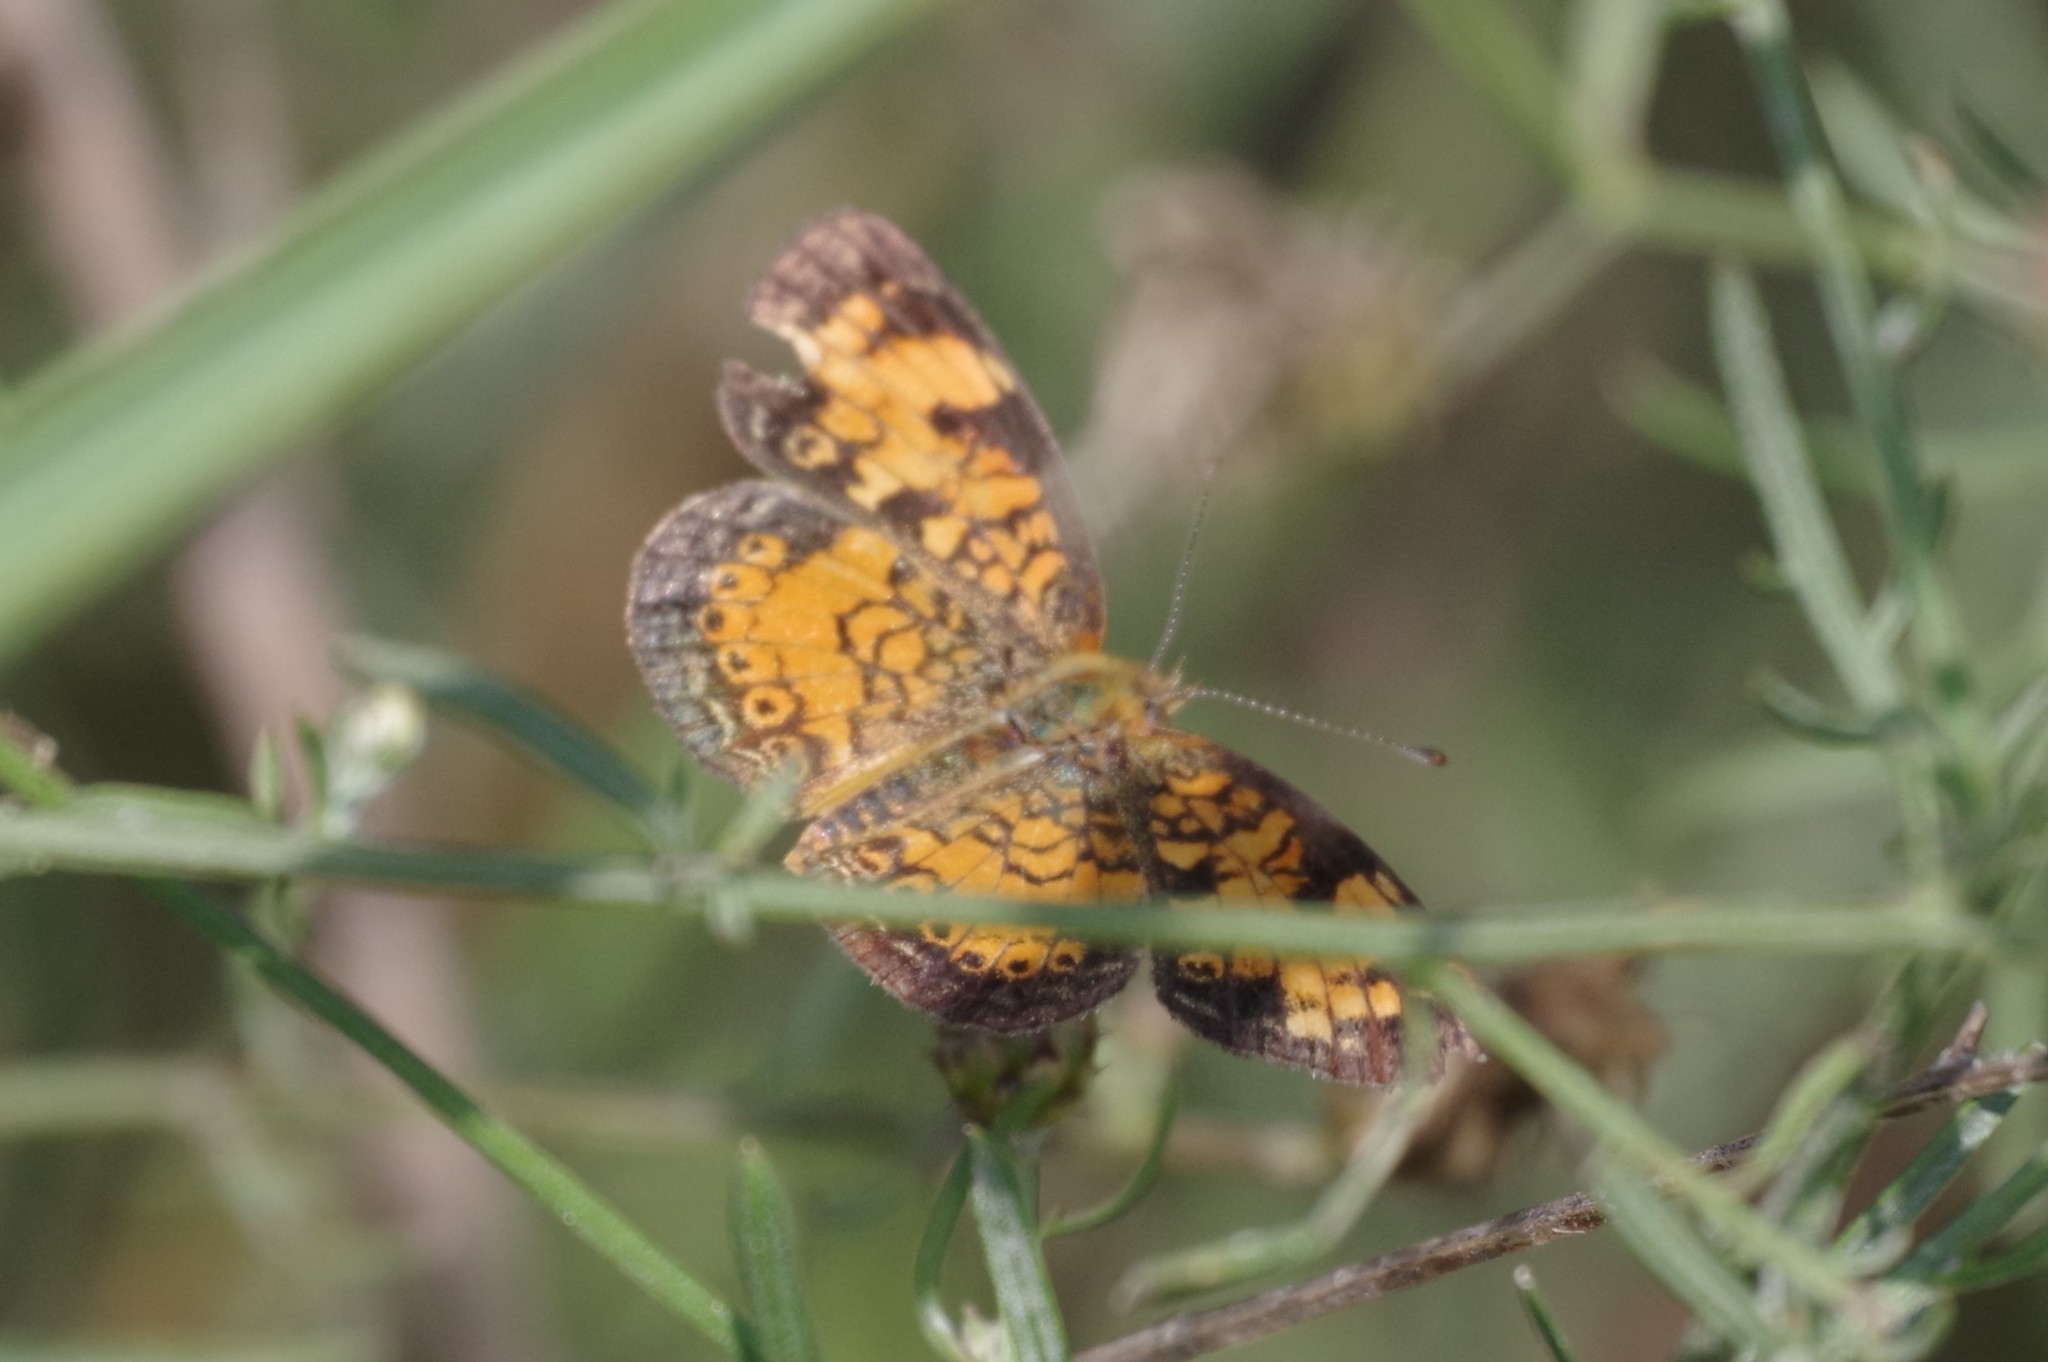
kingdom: Animalia
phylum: Arthropoda
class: Insecta
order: Lepidoptera
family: Nymphalidae
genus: Phyciodes
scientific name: Phyciodes tharos
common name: Pearl crescent
